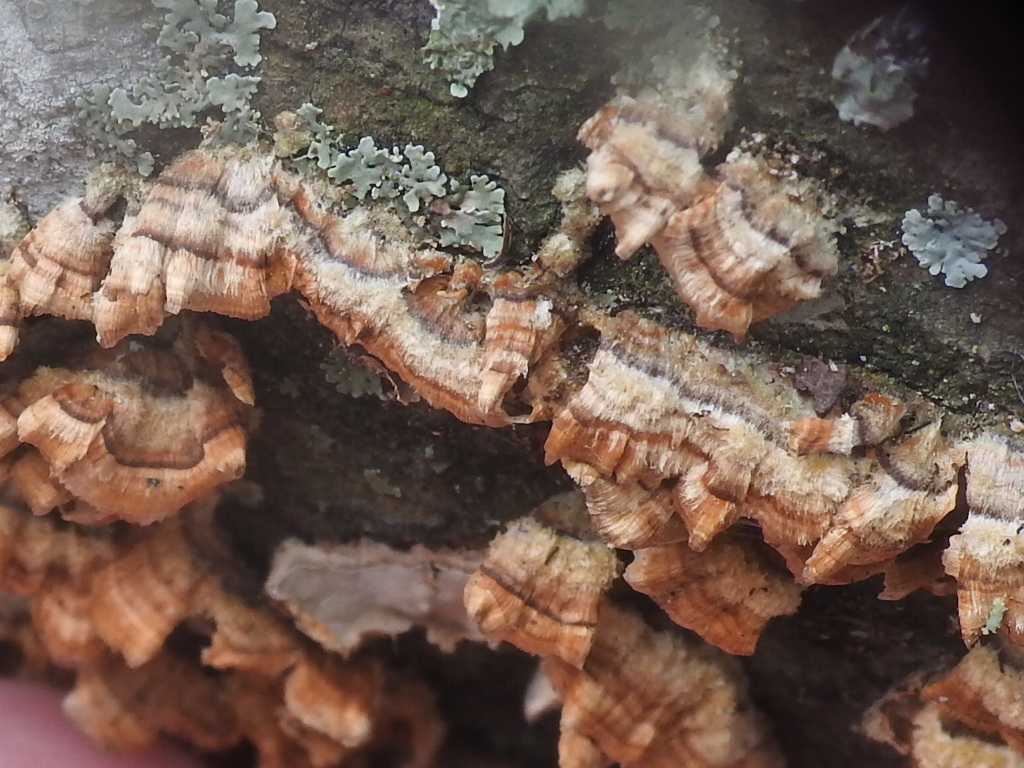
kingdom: Fungi
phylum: Basidiomycota
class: Agaricomycetes
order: Russulales
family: Stereaceae
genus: Stereum
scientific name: Stereum complicatum
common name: Crowded parchment
